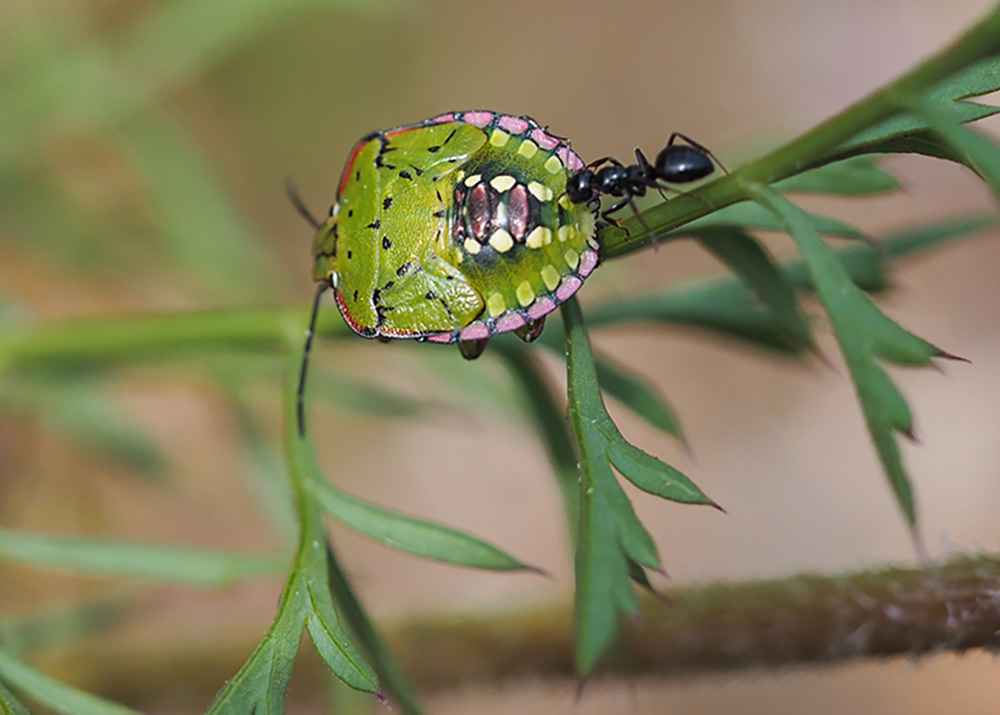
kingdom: Animalia
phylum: Arthropoda
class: Insecta
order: Hemiptera
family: Pentatomidae
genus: Nezara
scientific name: Nezara viridula
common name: Southern green stink bug
